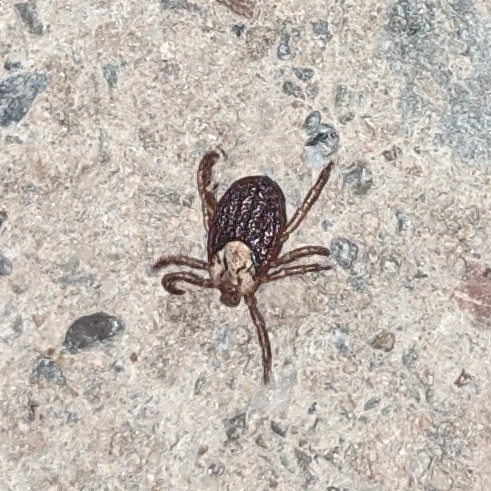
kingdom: Animalia
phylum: Arthropoda
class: Arachnida
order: Ixodida
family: Ixodidae
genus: Dermacentor
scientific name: Dermacentor
